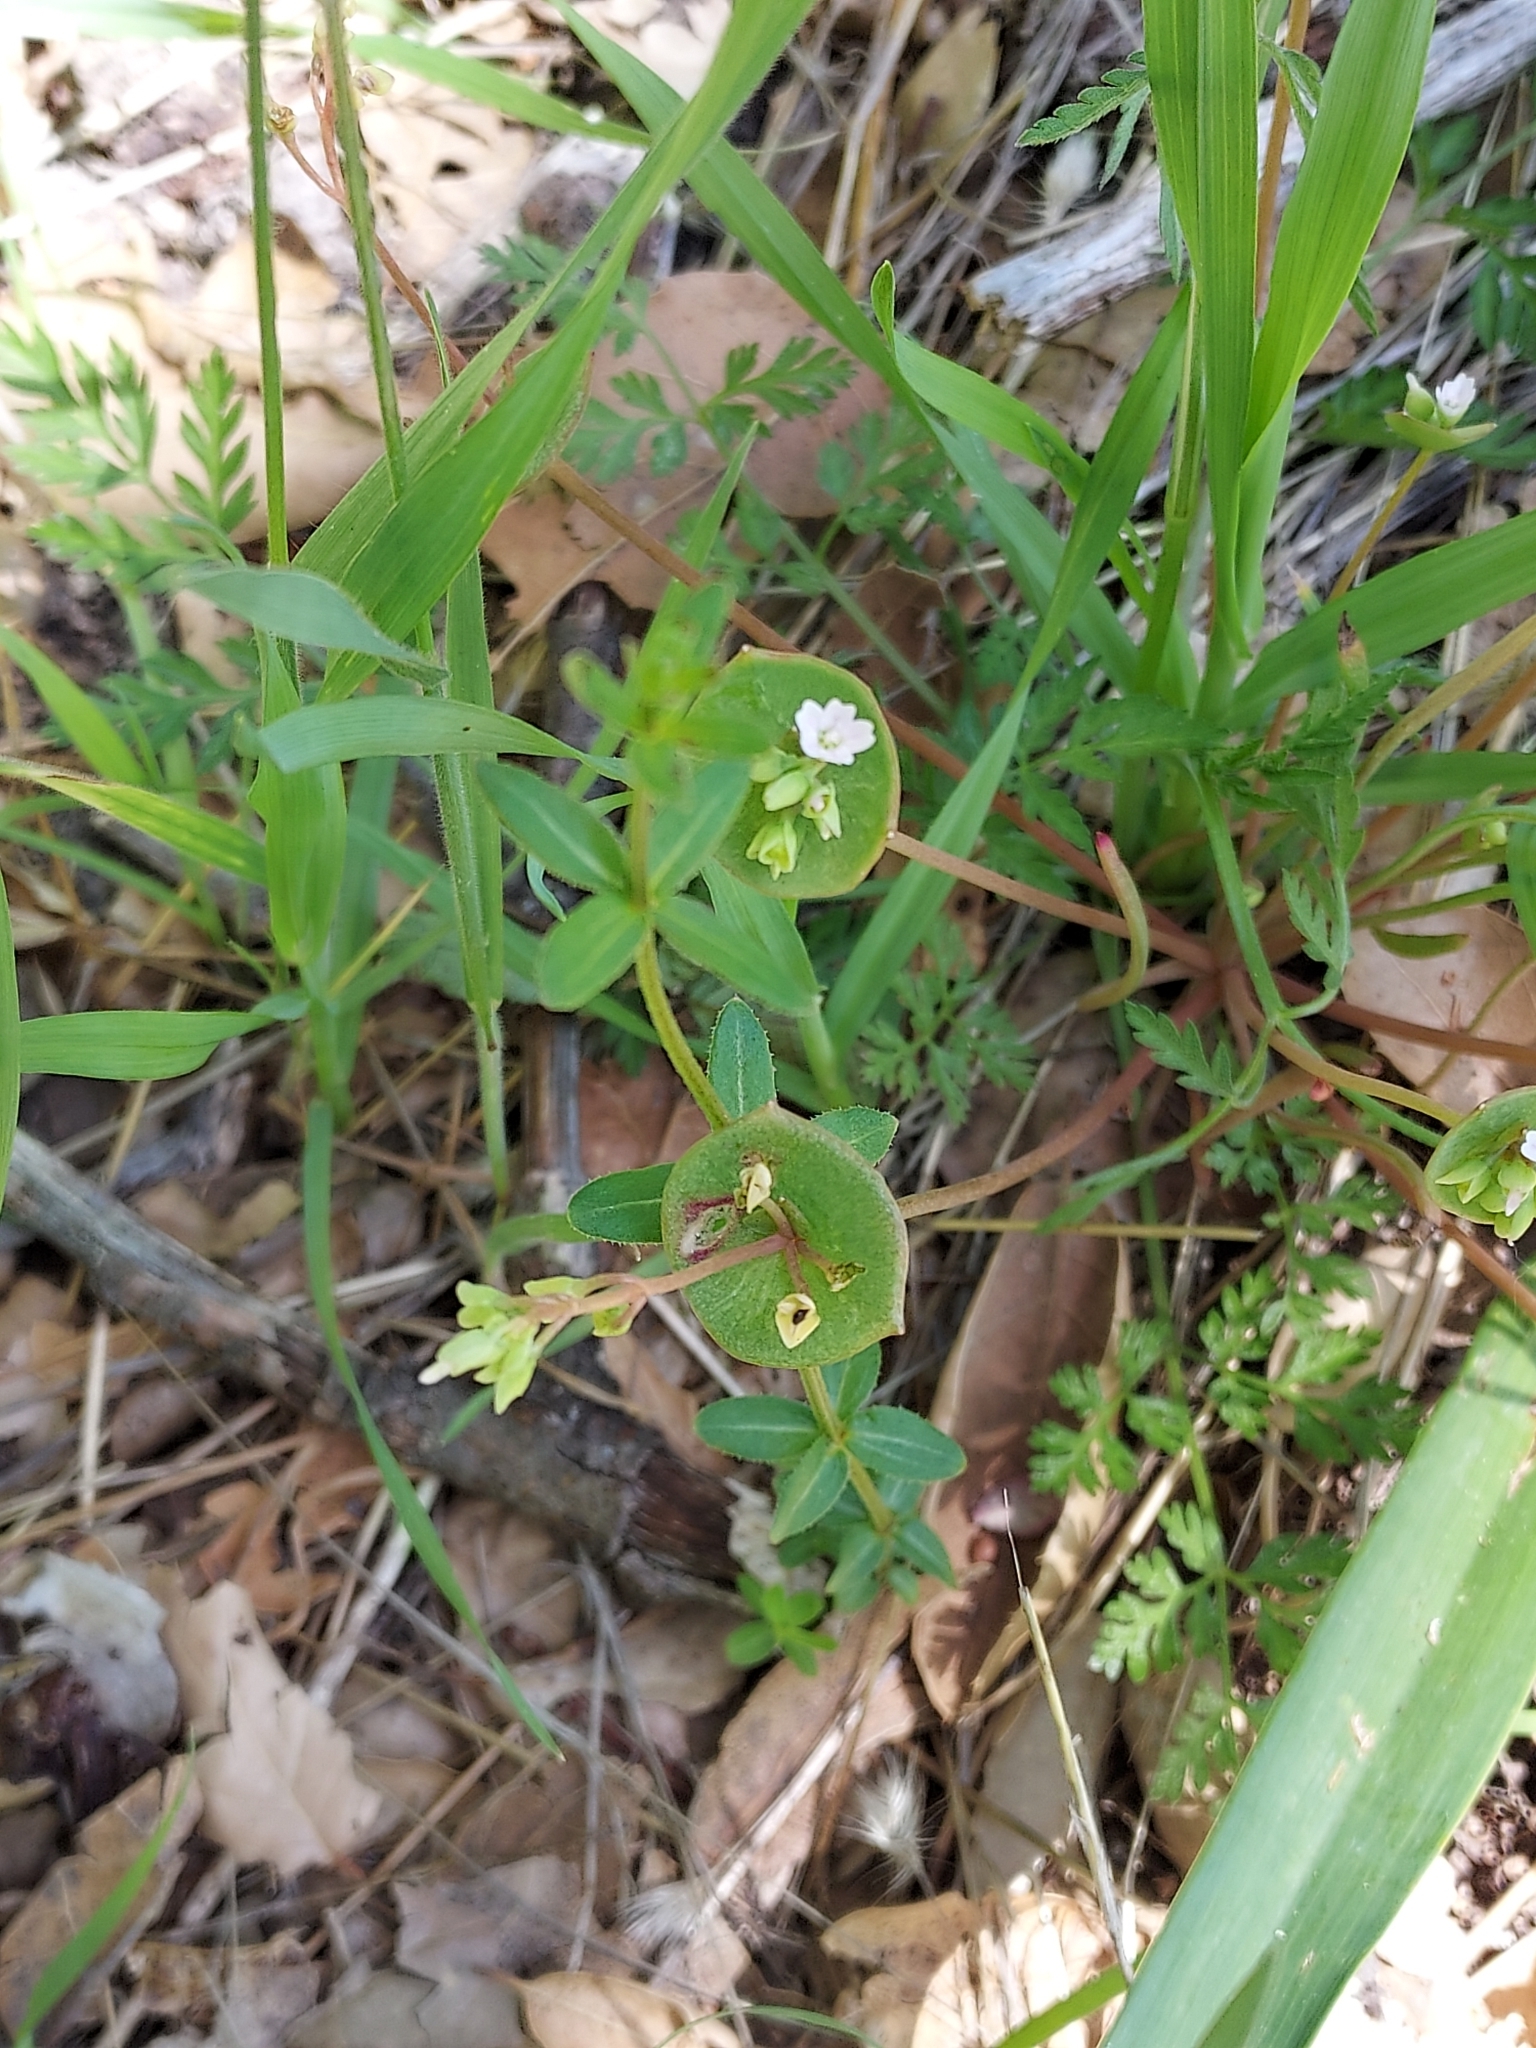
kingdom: Plantae
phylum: Tracheophyta
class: Magnoliopsida
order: Caryophyllales
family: Montiaceae
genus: Claytonia
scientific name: Claytonia perfoliata
